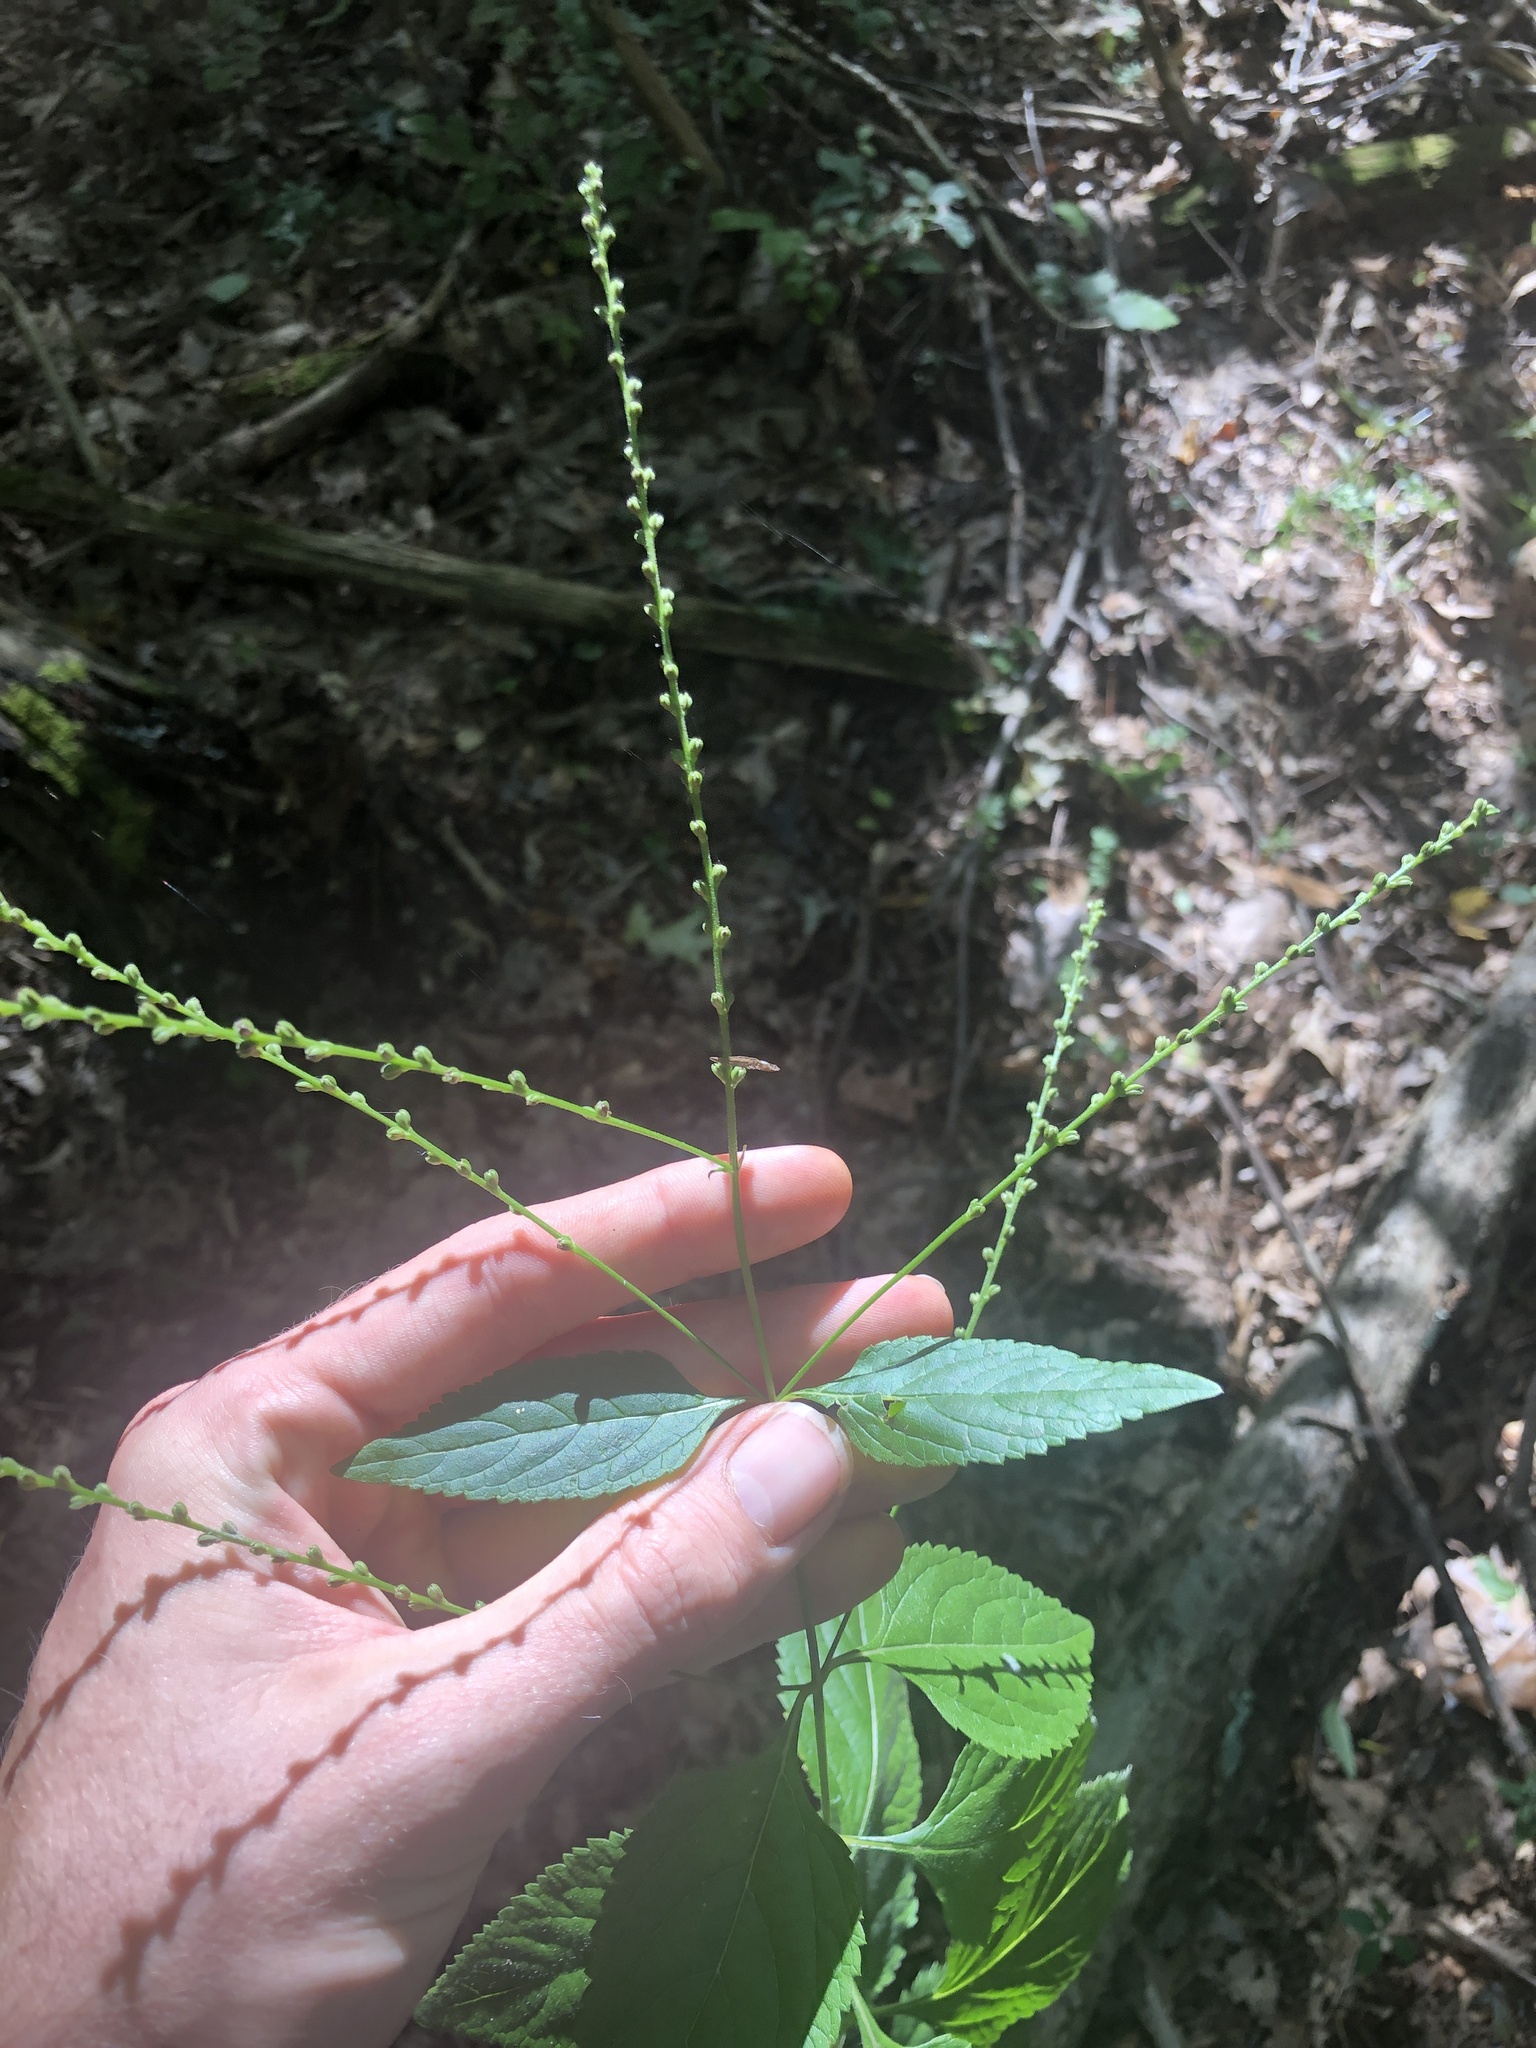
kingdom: Plantae
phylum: Tracheophyta
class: Magnoliopsida
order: Lamiales
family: Verbenaceae
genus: Verbena
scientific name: Verbena urticifolia
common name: Nettle-leaved vervain
